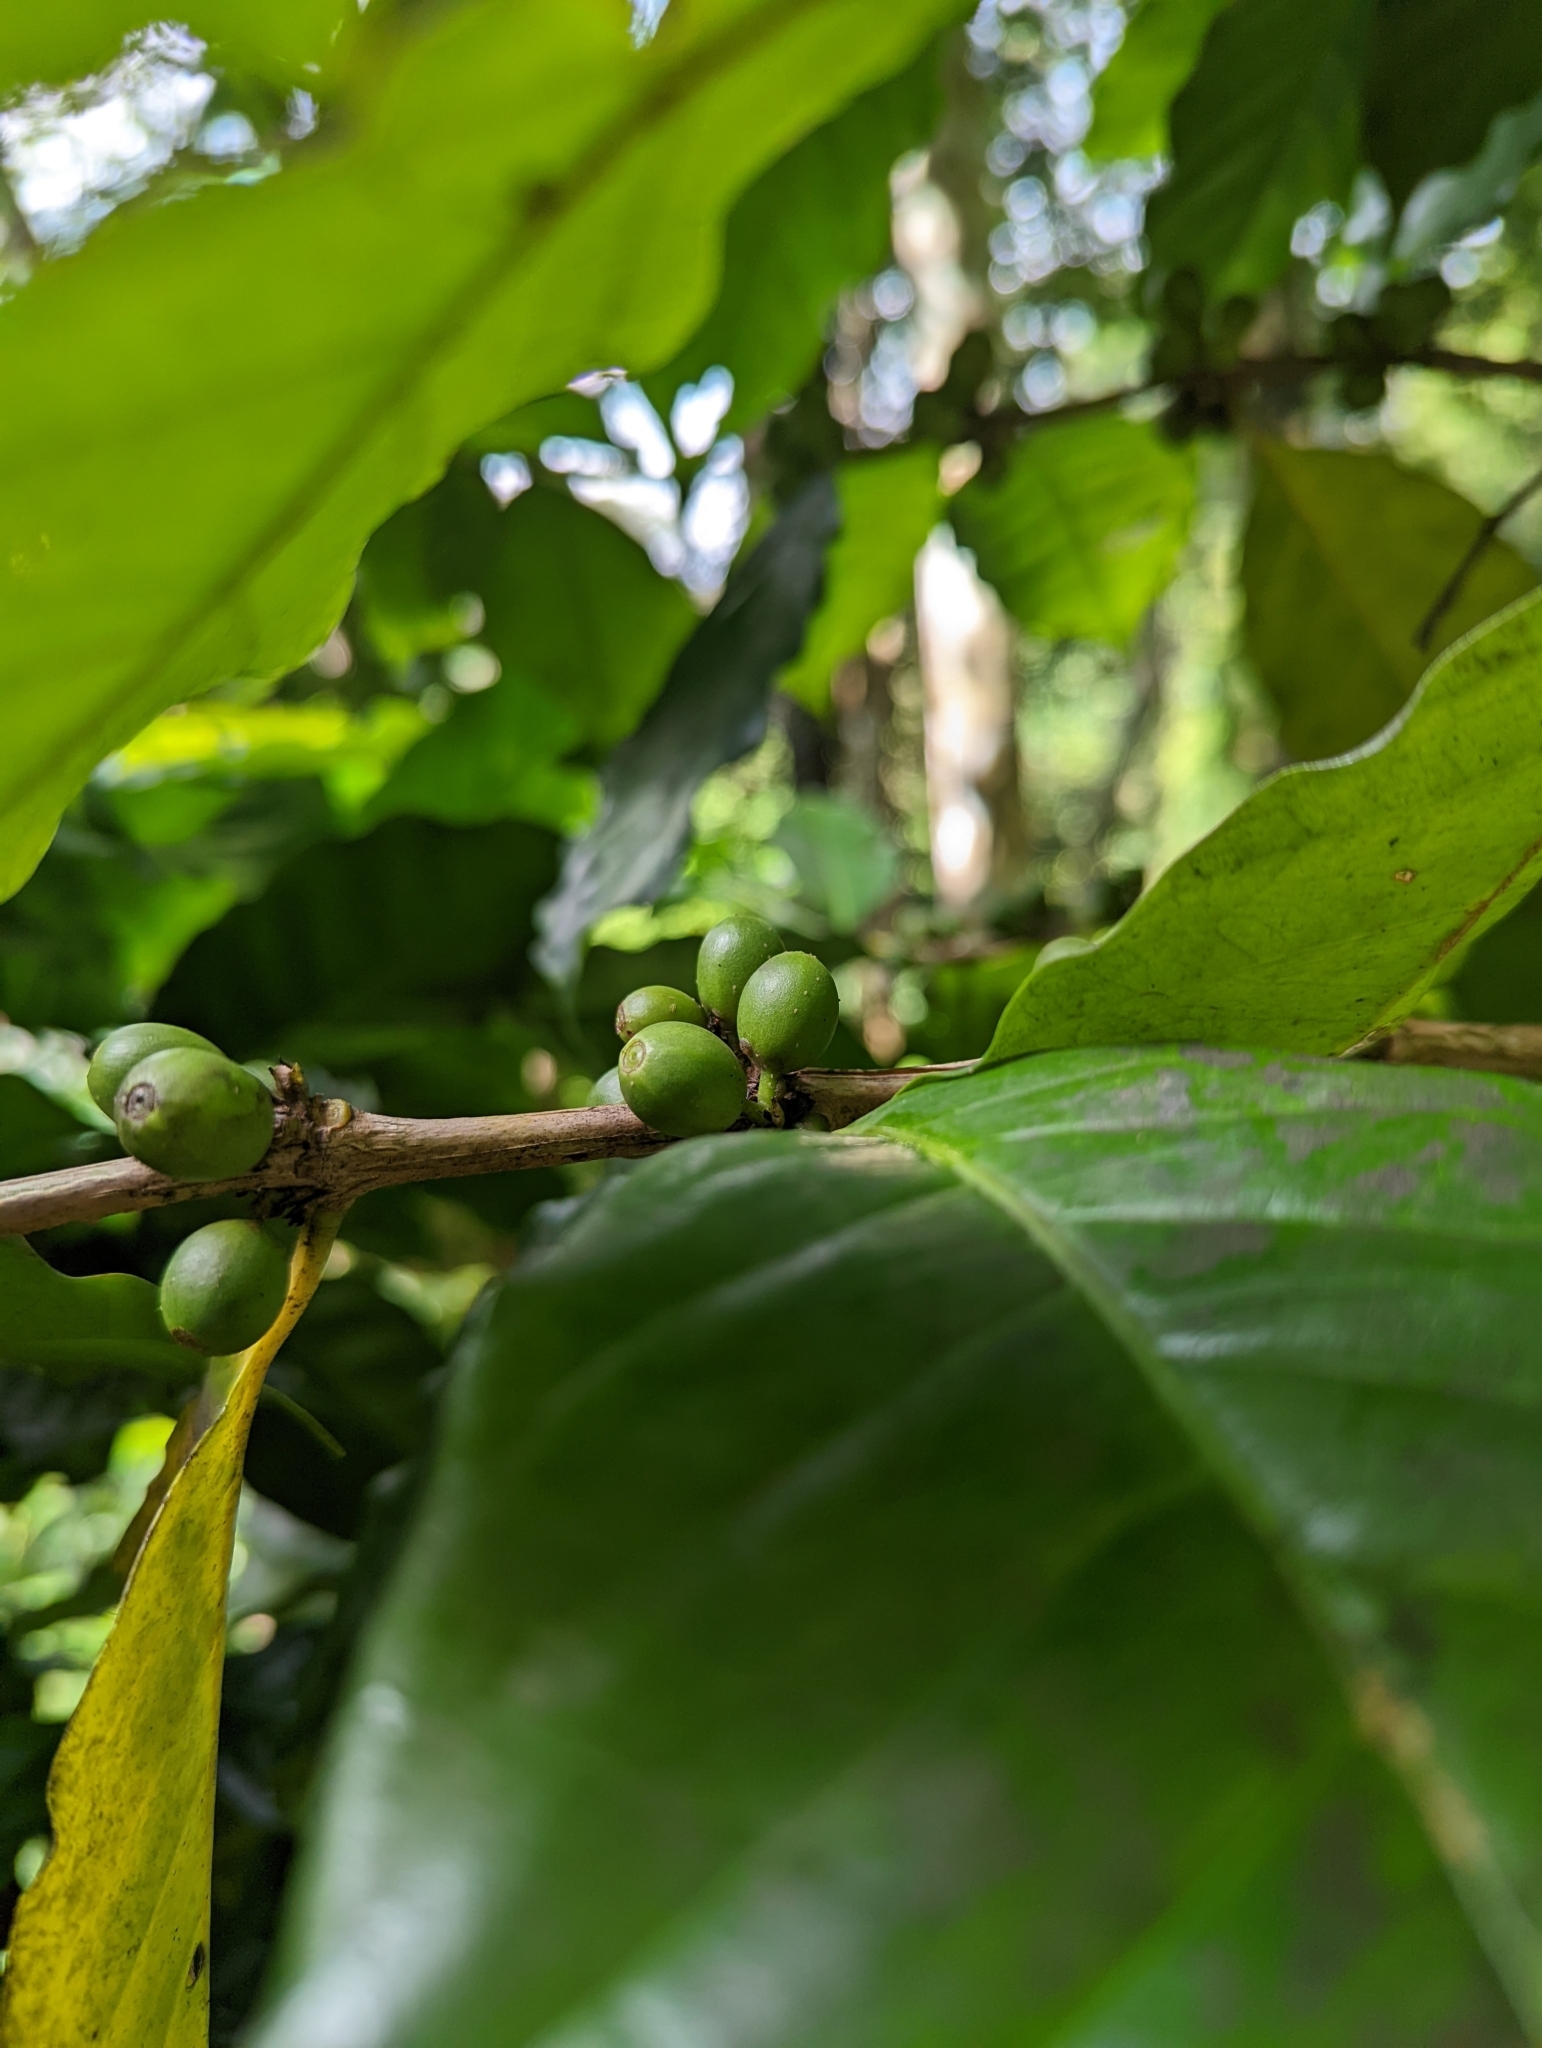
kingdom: Plantae
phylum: Tracheophyta
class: Magnoliopsida
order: Gentianales
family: Rubiaceae
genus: Coffea
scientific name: Coffea arabica
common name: Coffee
